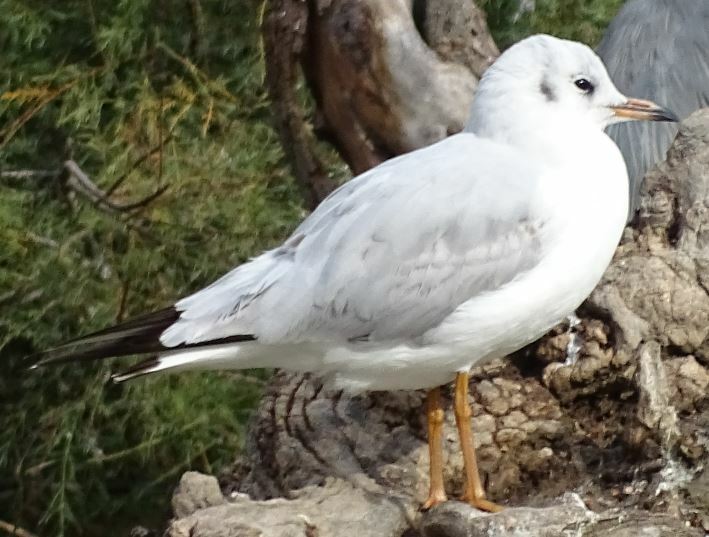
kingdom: Animalia
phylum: Chordata
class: Aves
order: Charadriiformes
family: Laridae
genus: Chroicocephalus
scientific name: Chroicocephalus ridibundus
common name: Black-headed gull
